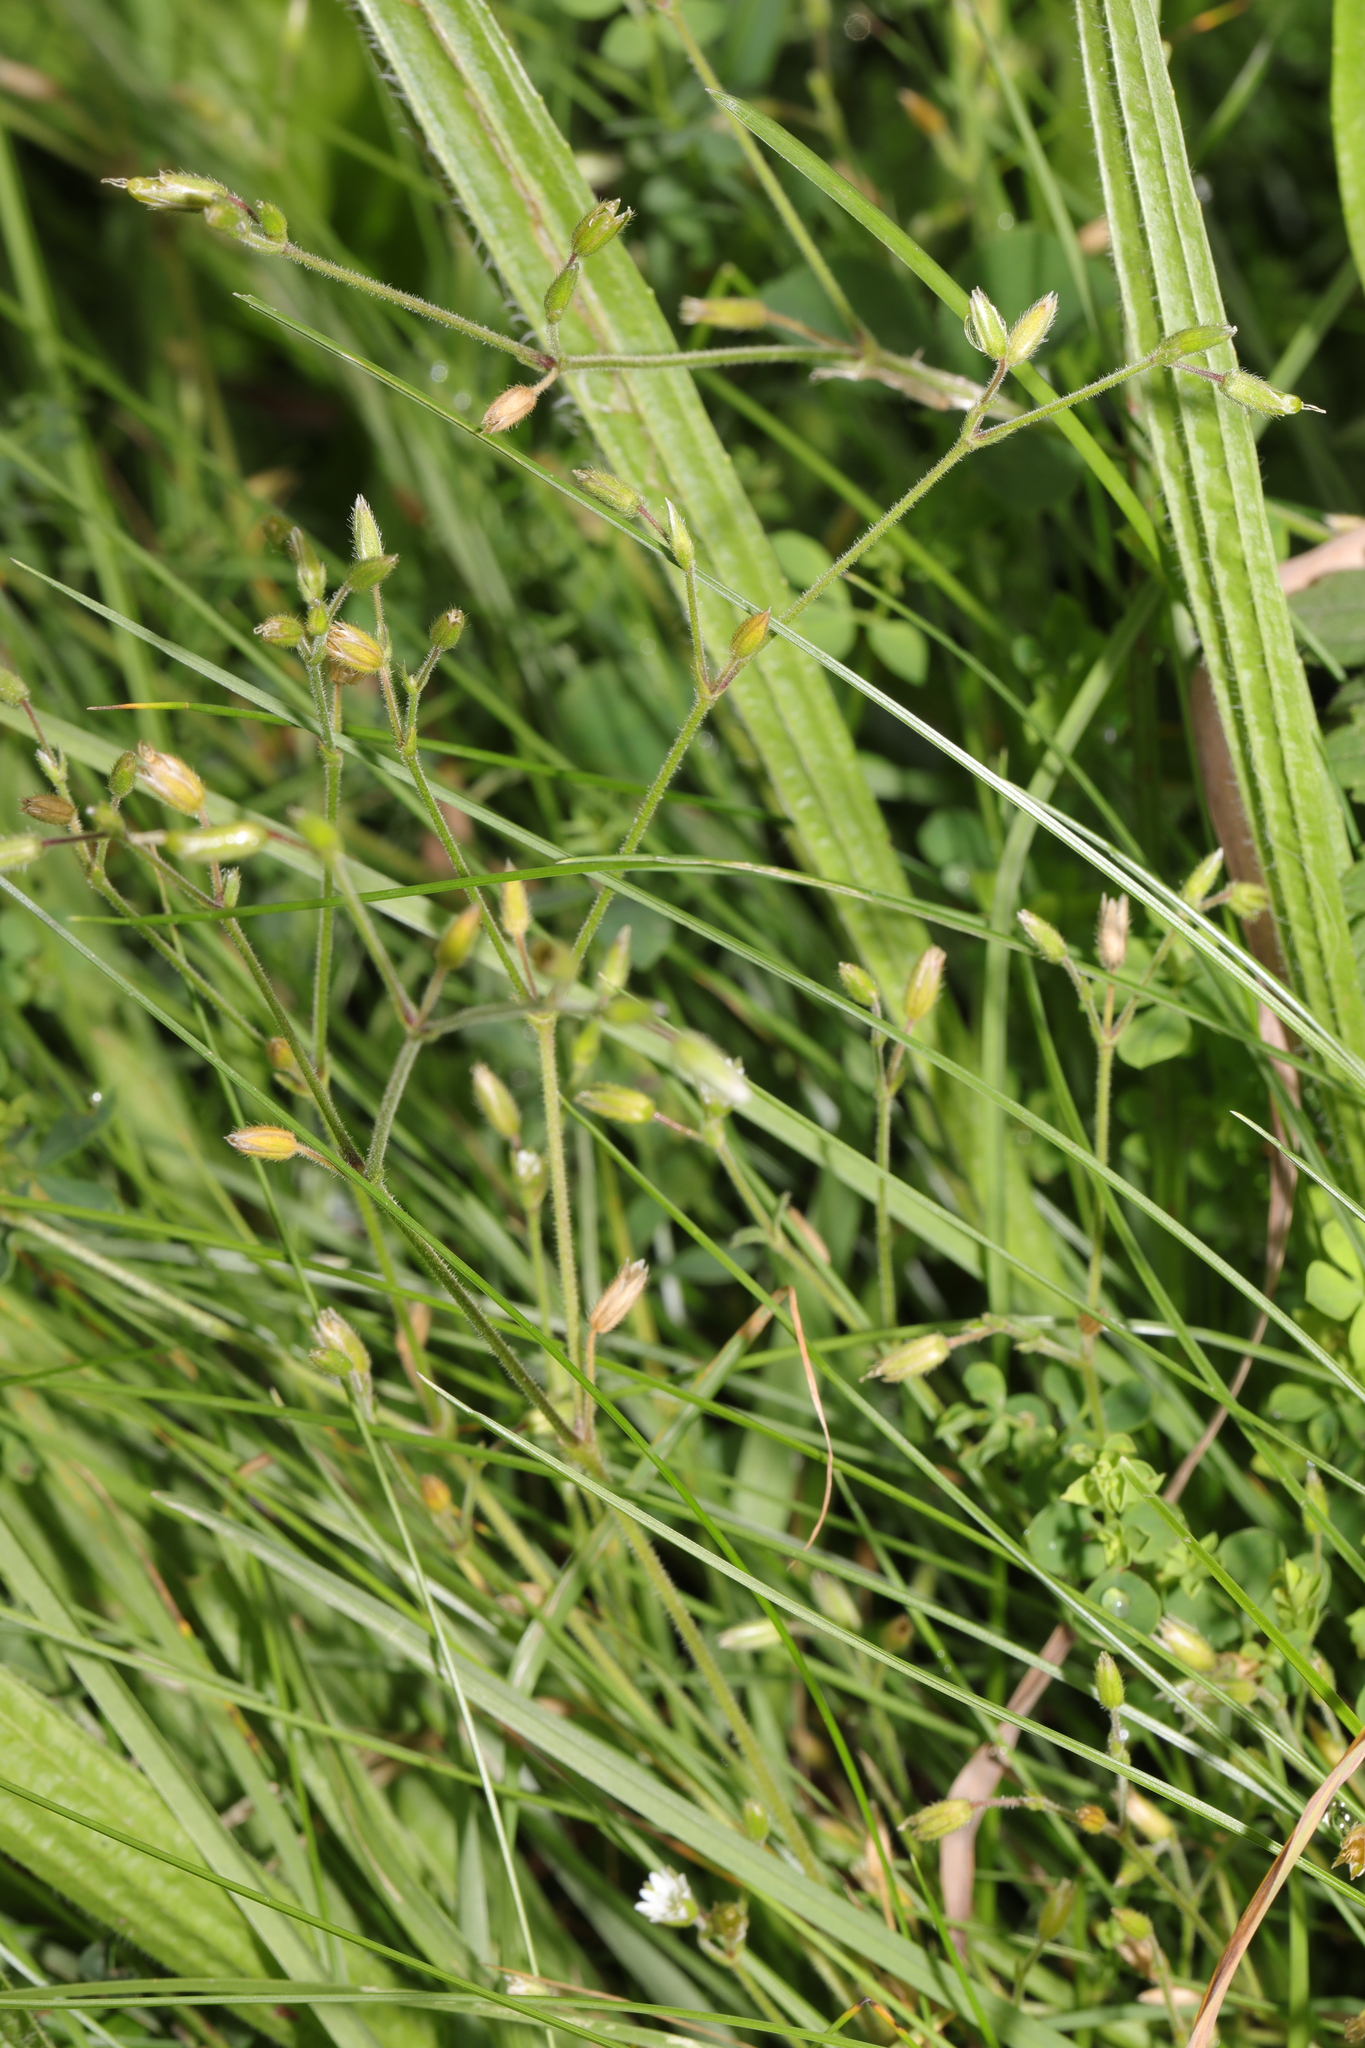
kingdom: Plantae
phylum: Tracheophyta
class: Magnoliopsida
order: Caryophyllales
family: Caryophyllaceae
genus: Cerastium
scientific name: Cerastium fontanum
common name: Common mouse-ear
